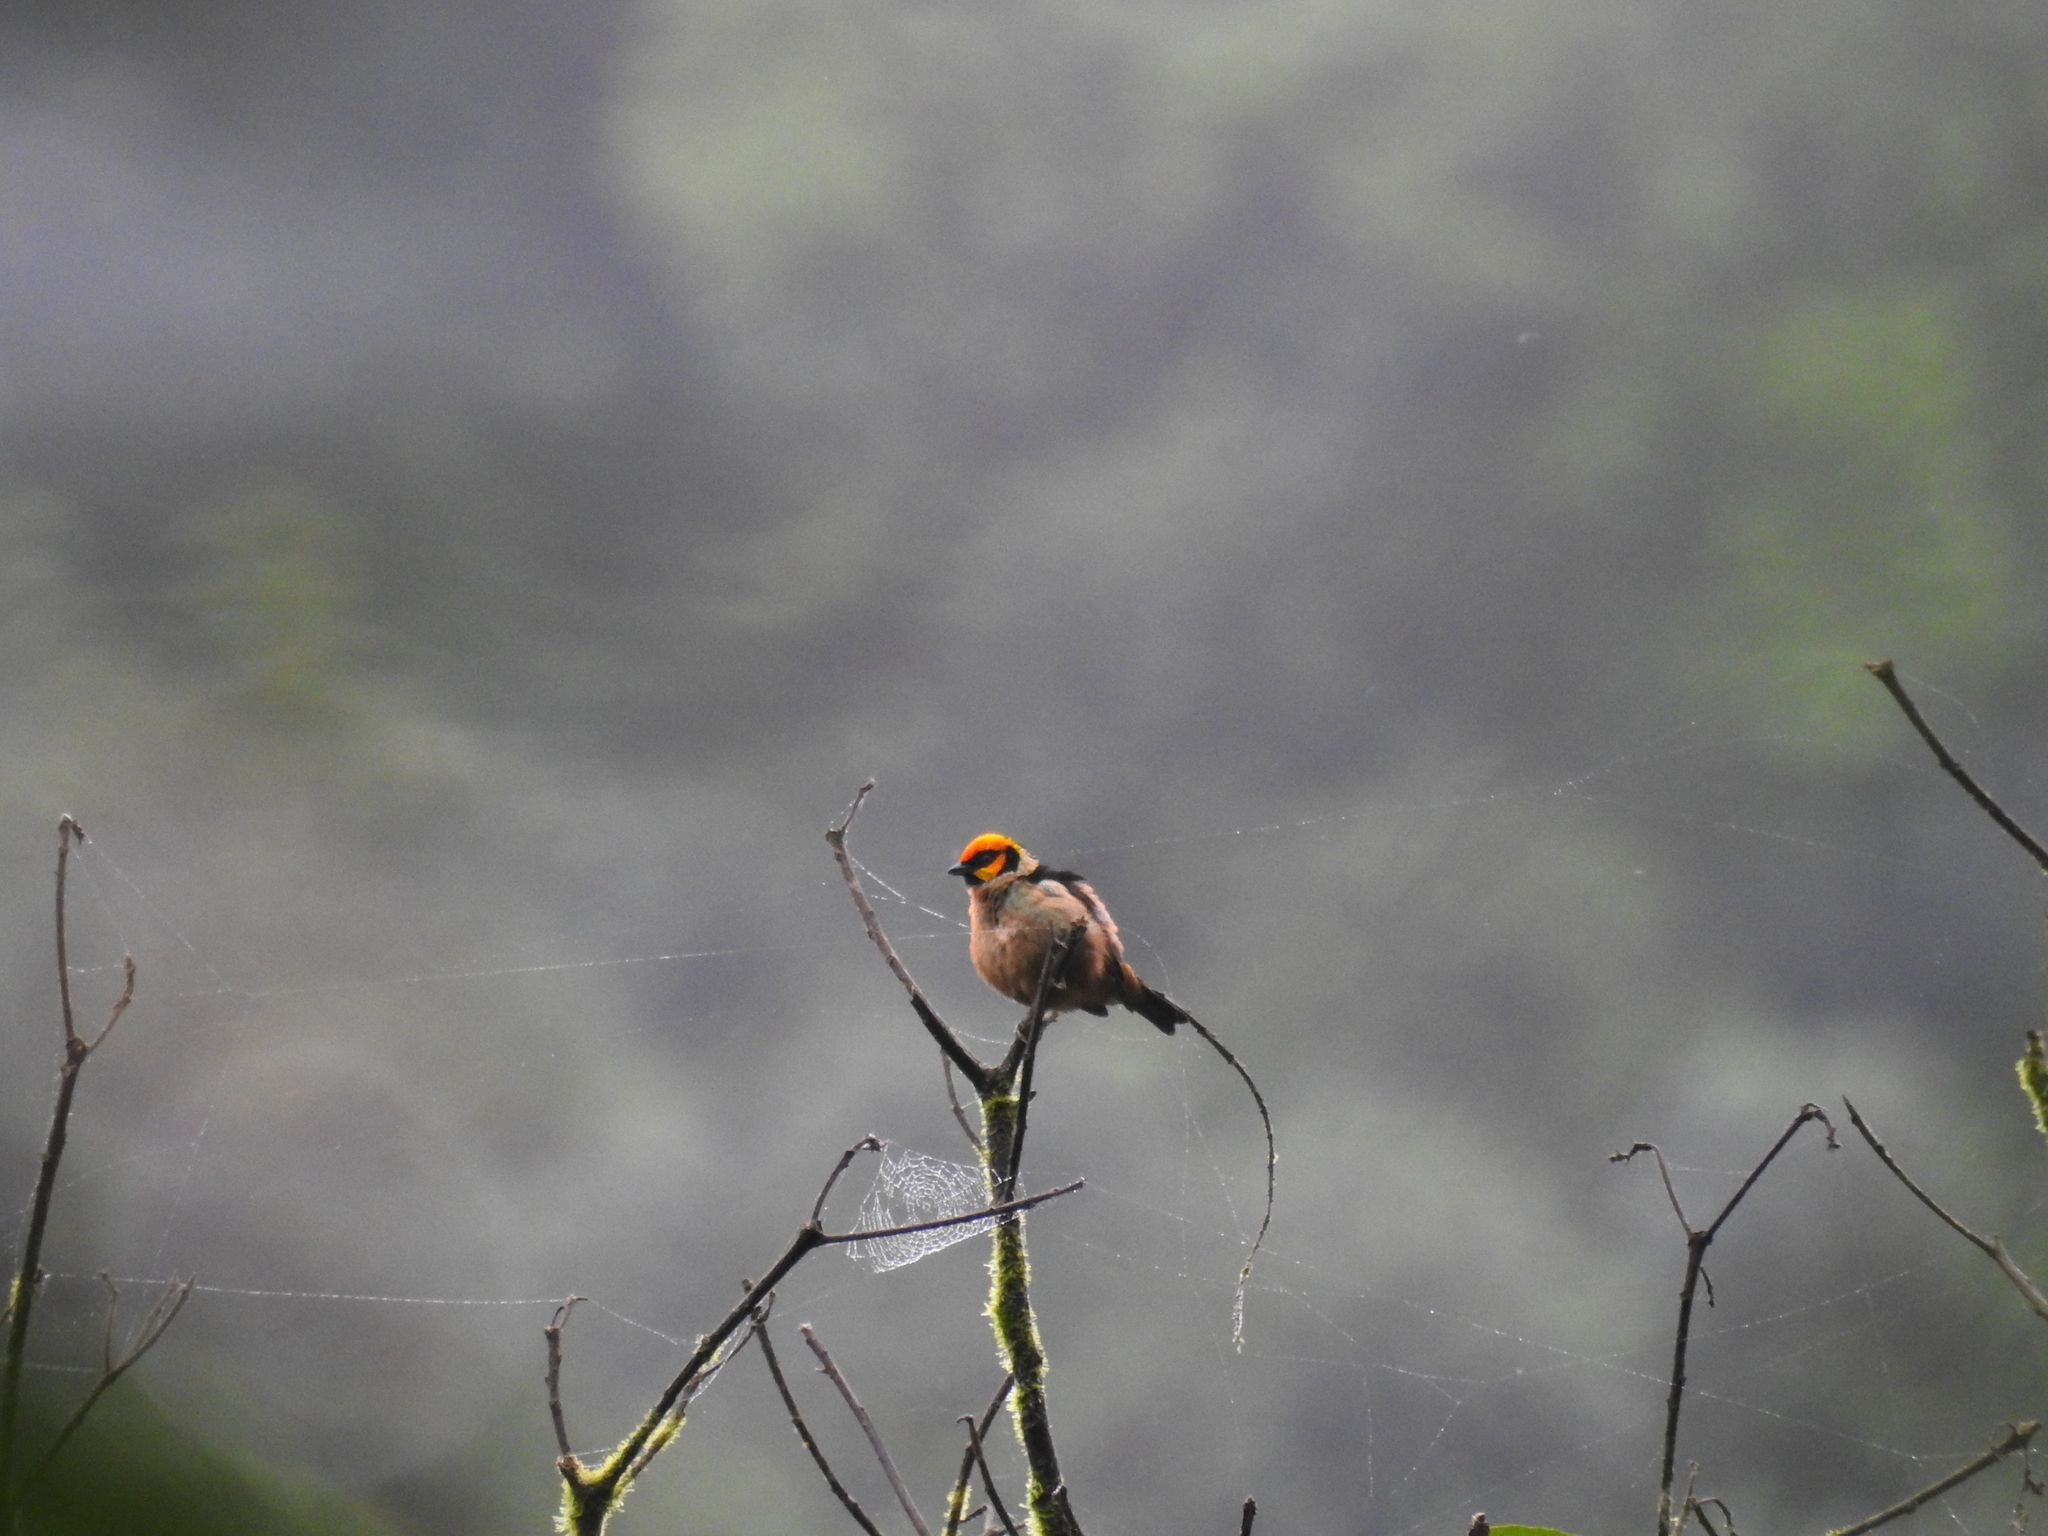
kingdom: Animalia
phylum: Chordata
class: Aves
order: Passeriformes
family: Thraupidae
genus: Tangara
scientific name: Tangara parzudakii
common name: Flame-faced tanager
